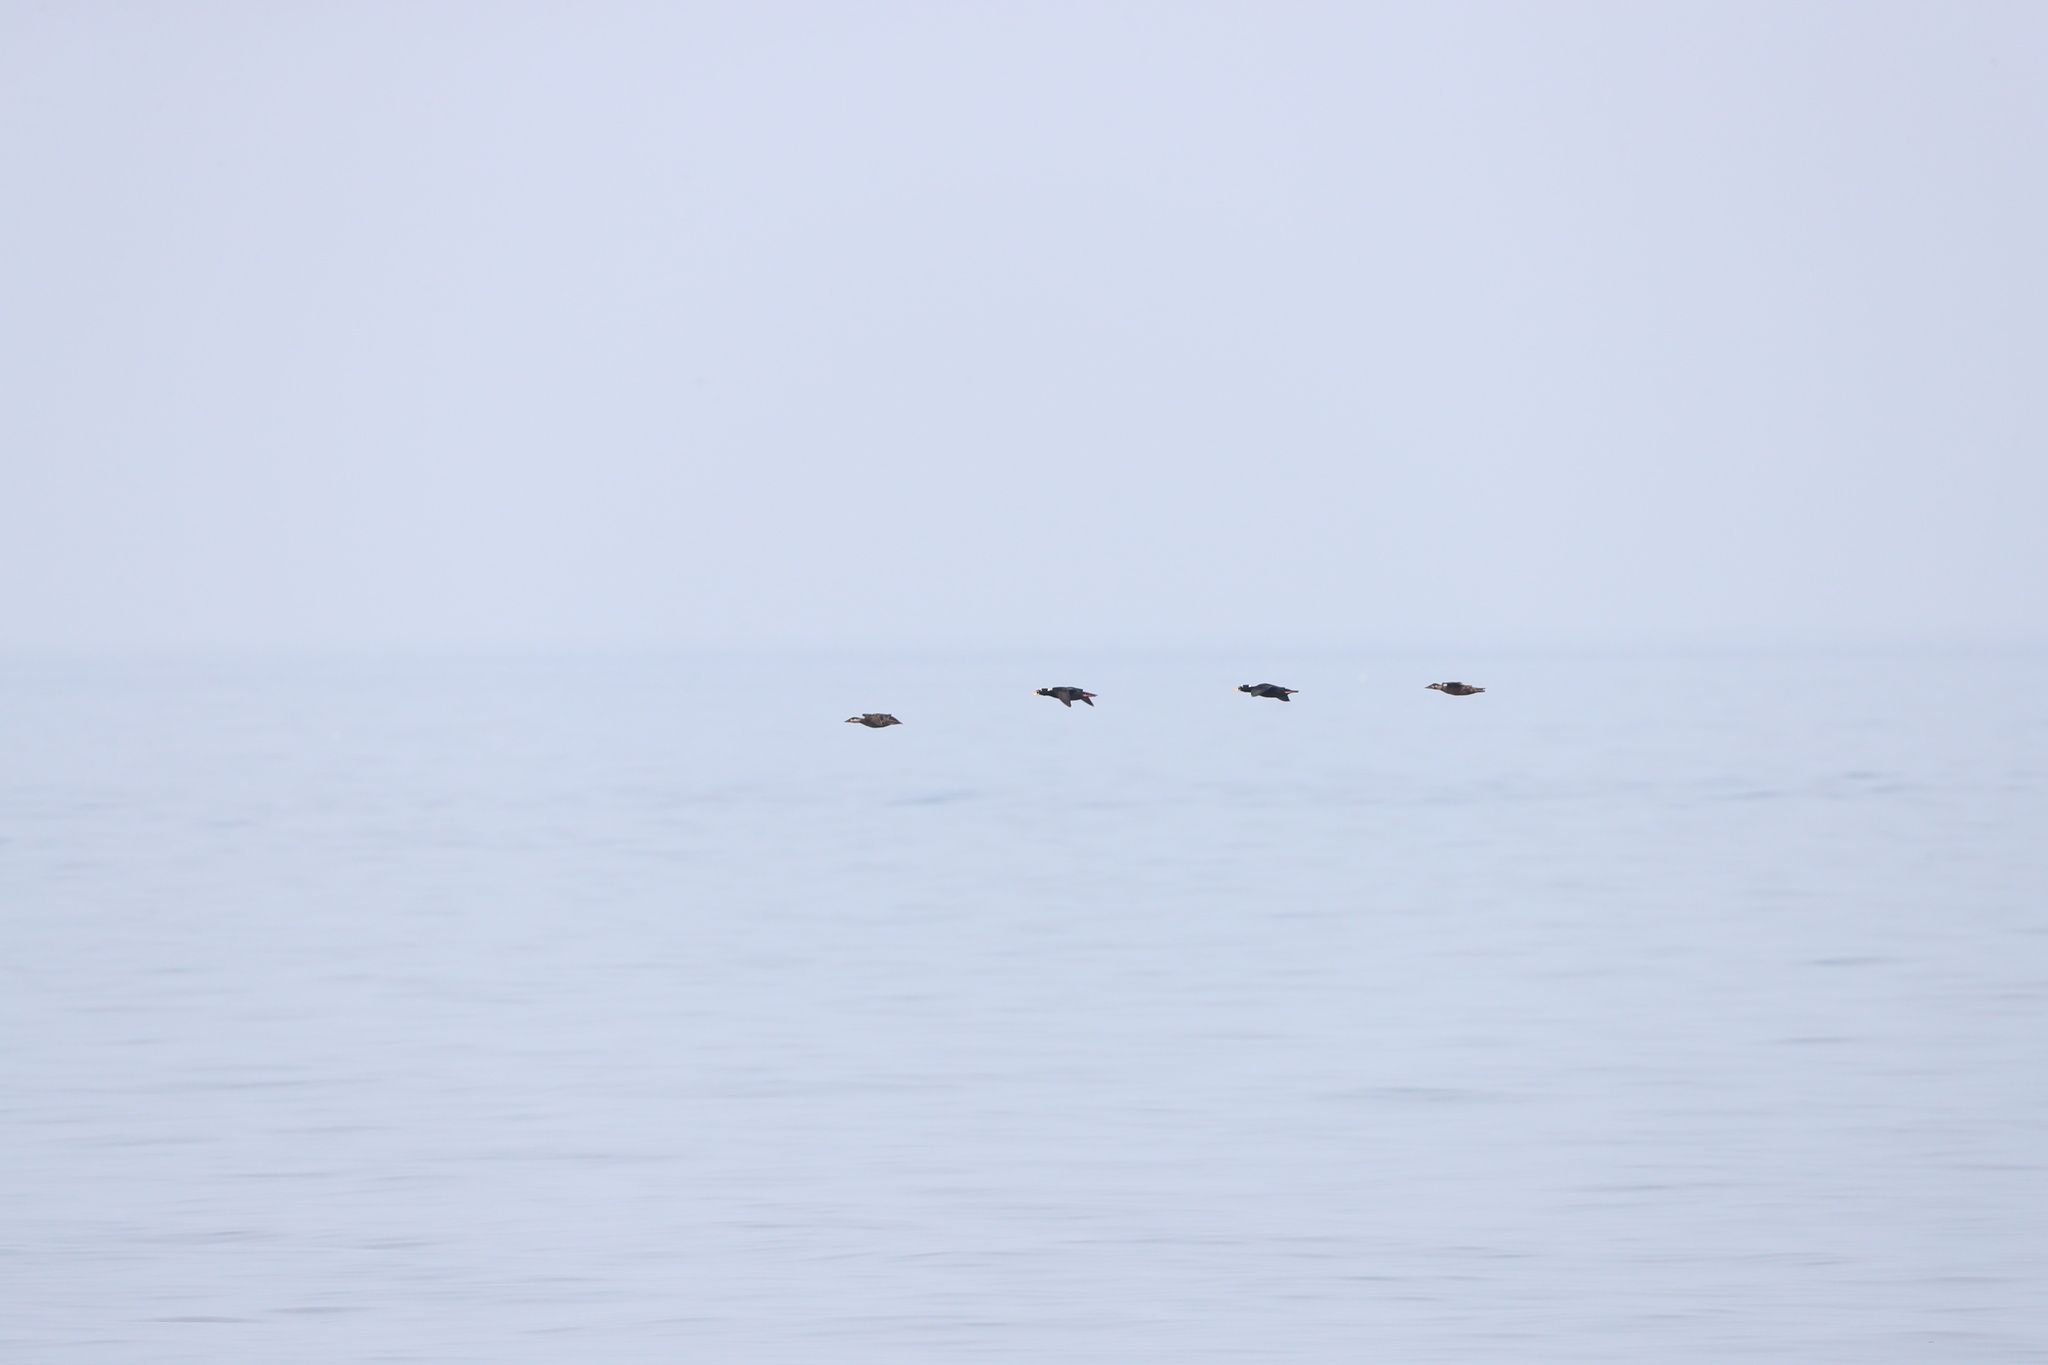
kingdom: Animalia
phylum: Chordata
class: Aves
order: Anseriformes
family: Anatidae
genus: Melanitta
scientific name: Melanitta perspicillata
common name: Surf scoter
